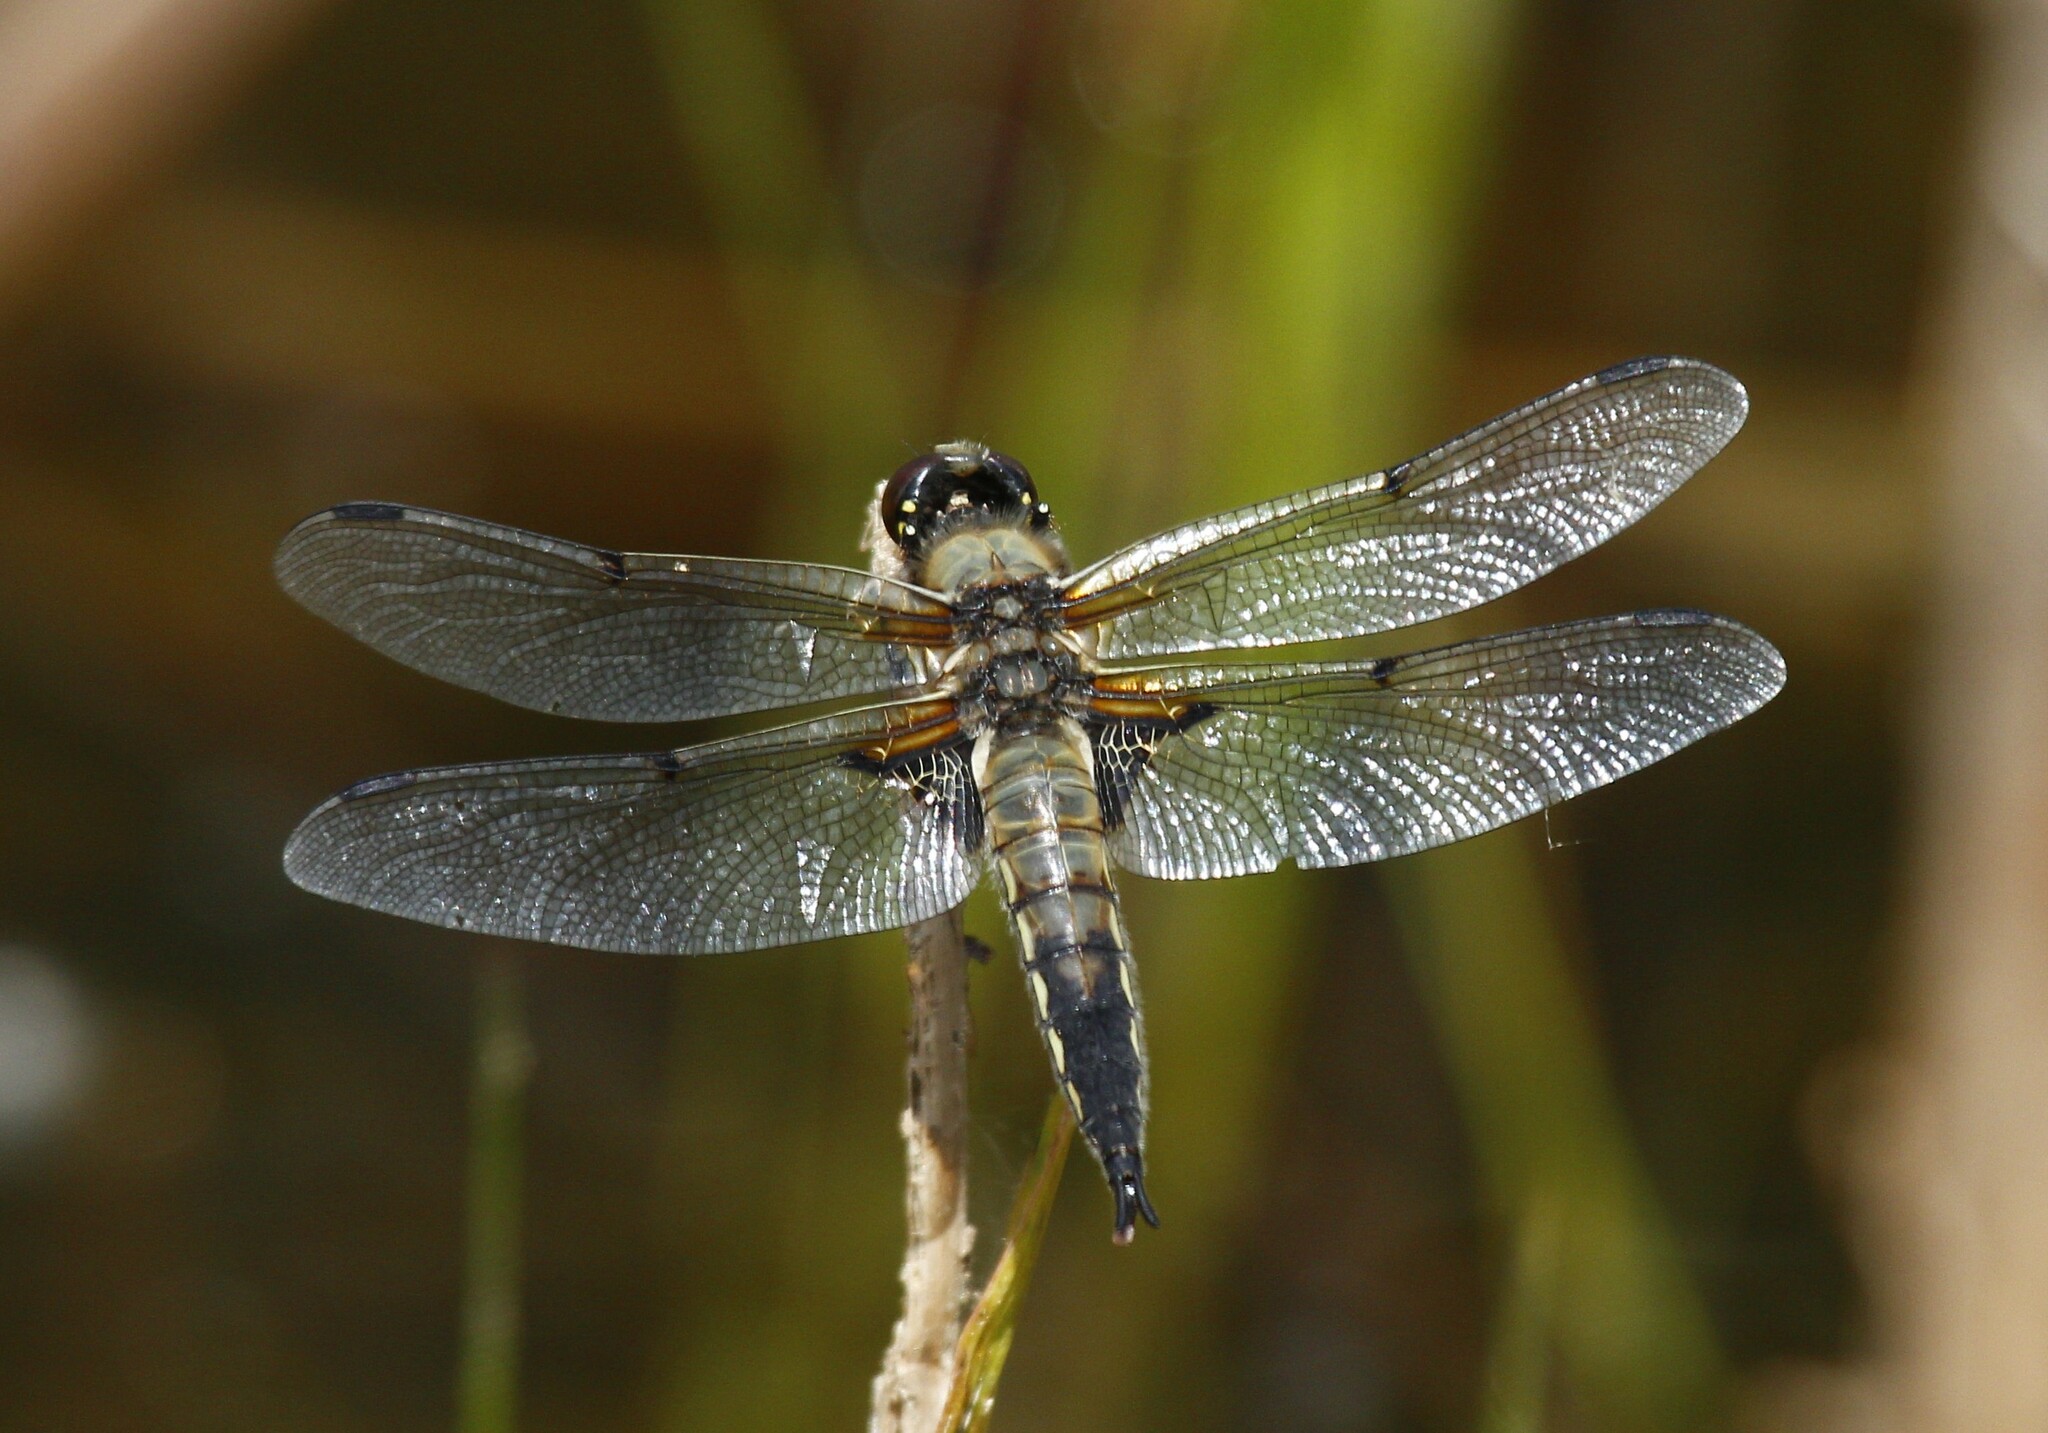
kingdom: Animalia
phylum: Arthropoda
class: Insecta
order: Odonata
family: Libellulidae
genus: Libellula
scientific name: Libellula quadrimaculata
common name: Four-spotted chaser
